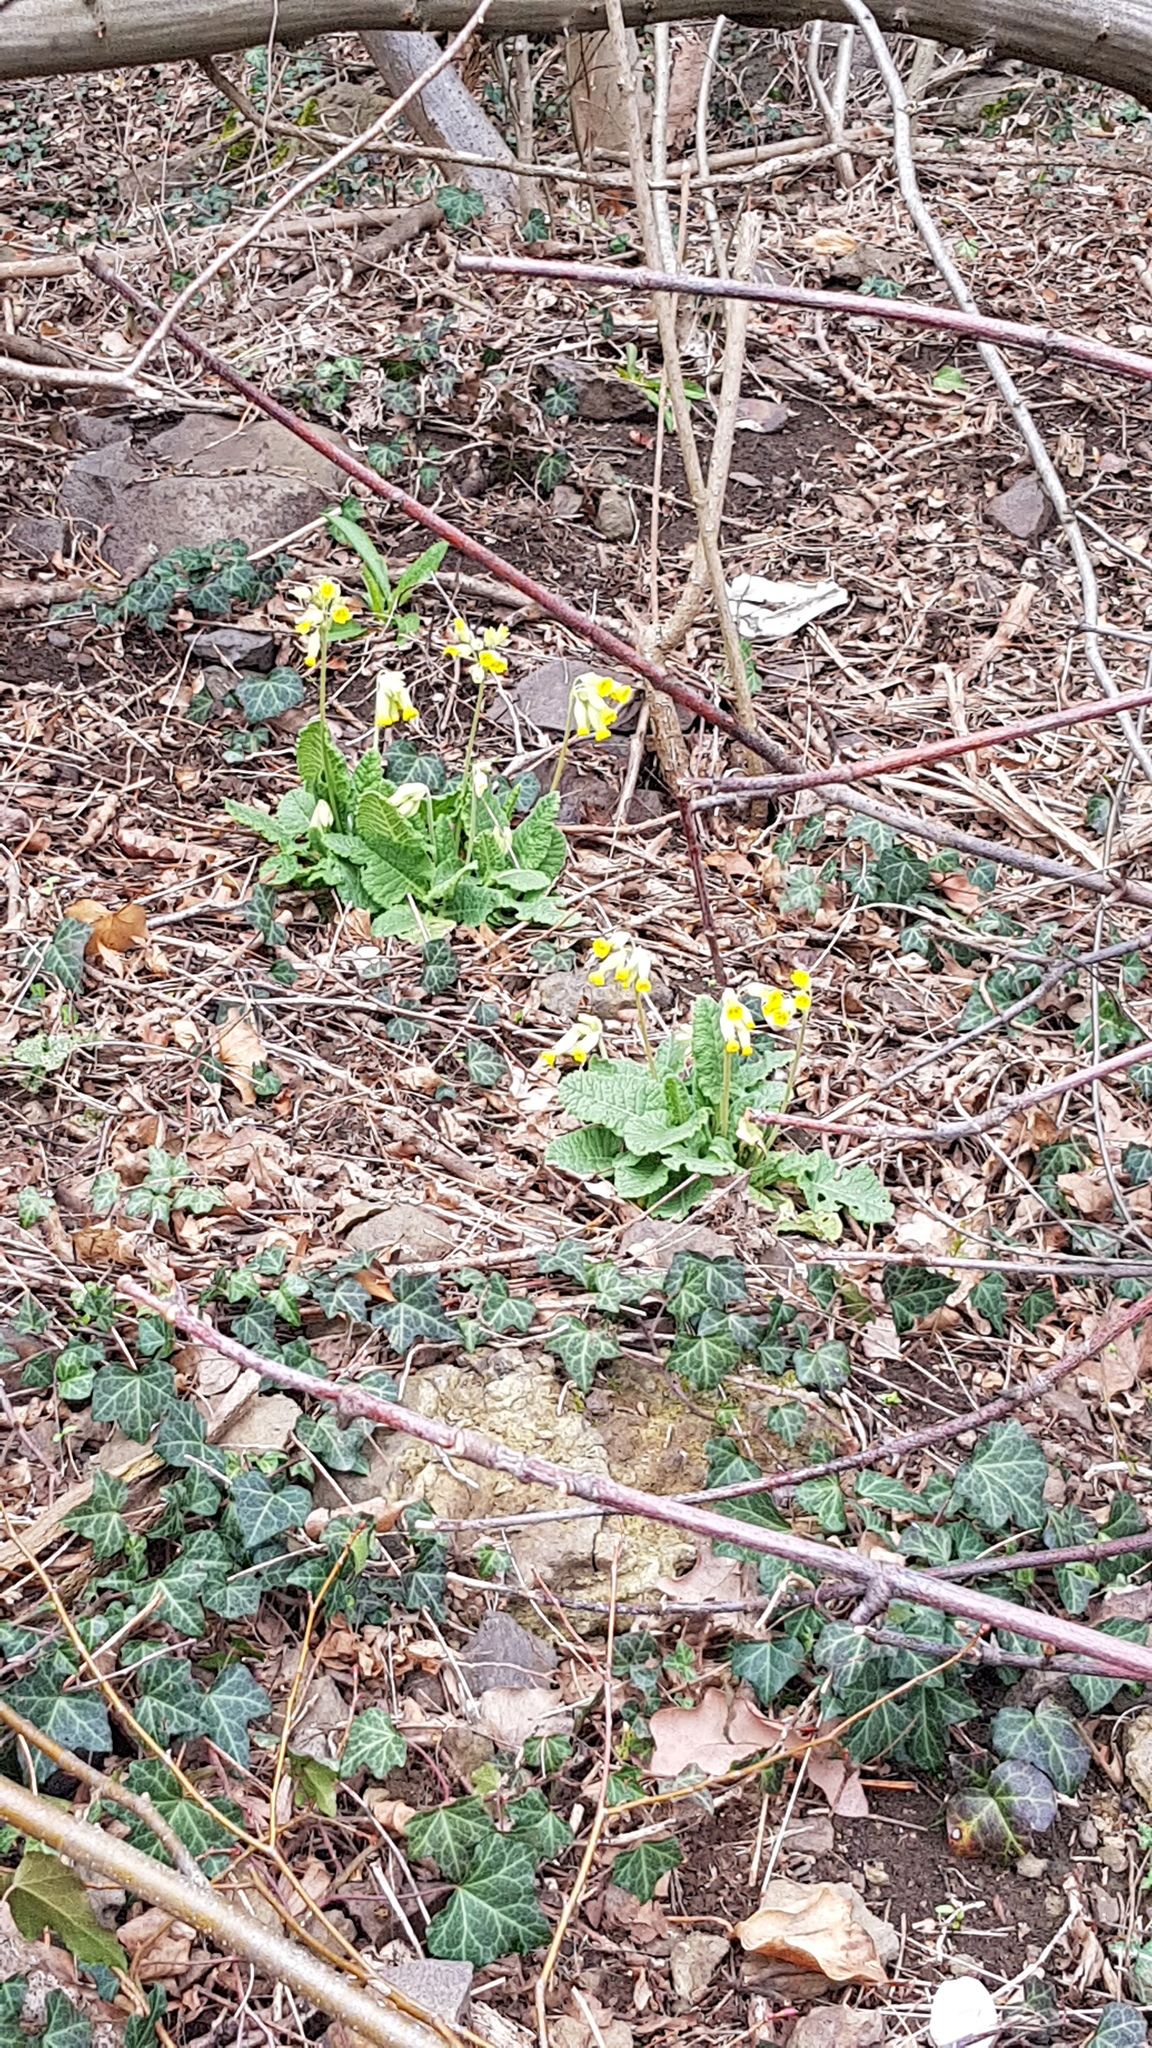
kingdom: Plantae
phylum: Tracheophyta
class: Magnoliopsida
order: Ericales
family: Primulaceae
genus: Primula
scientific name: Primula veris
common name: Cowslip
